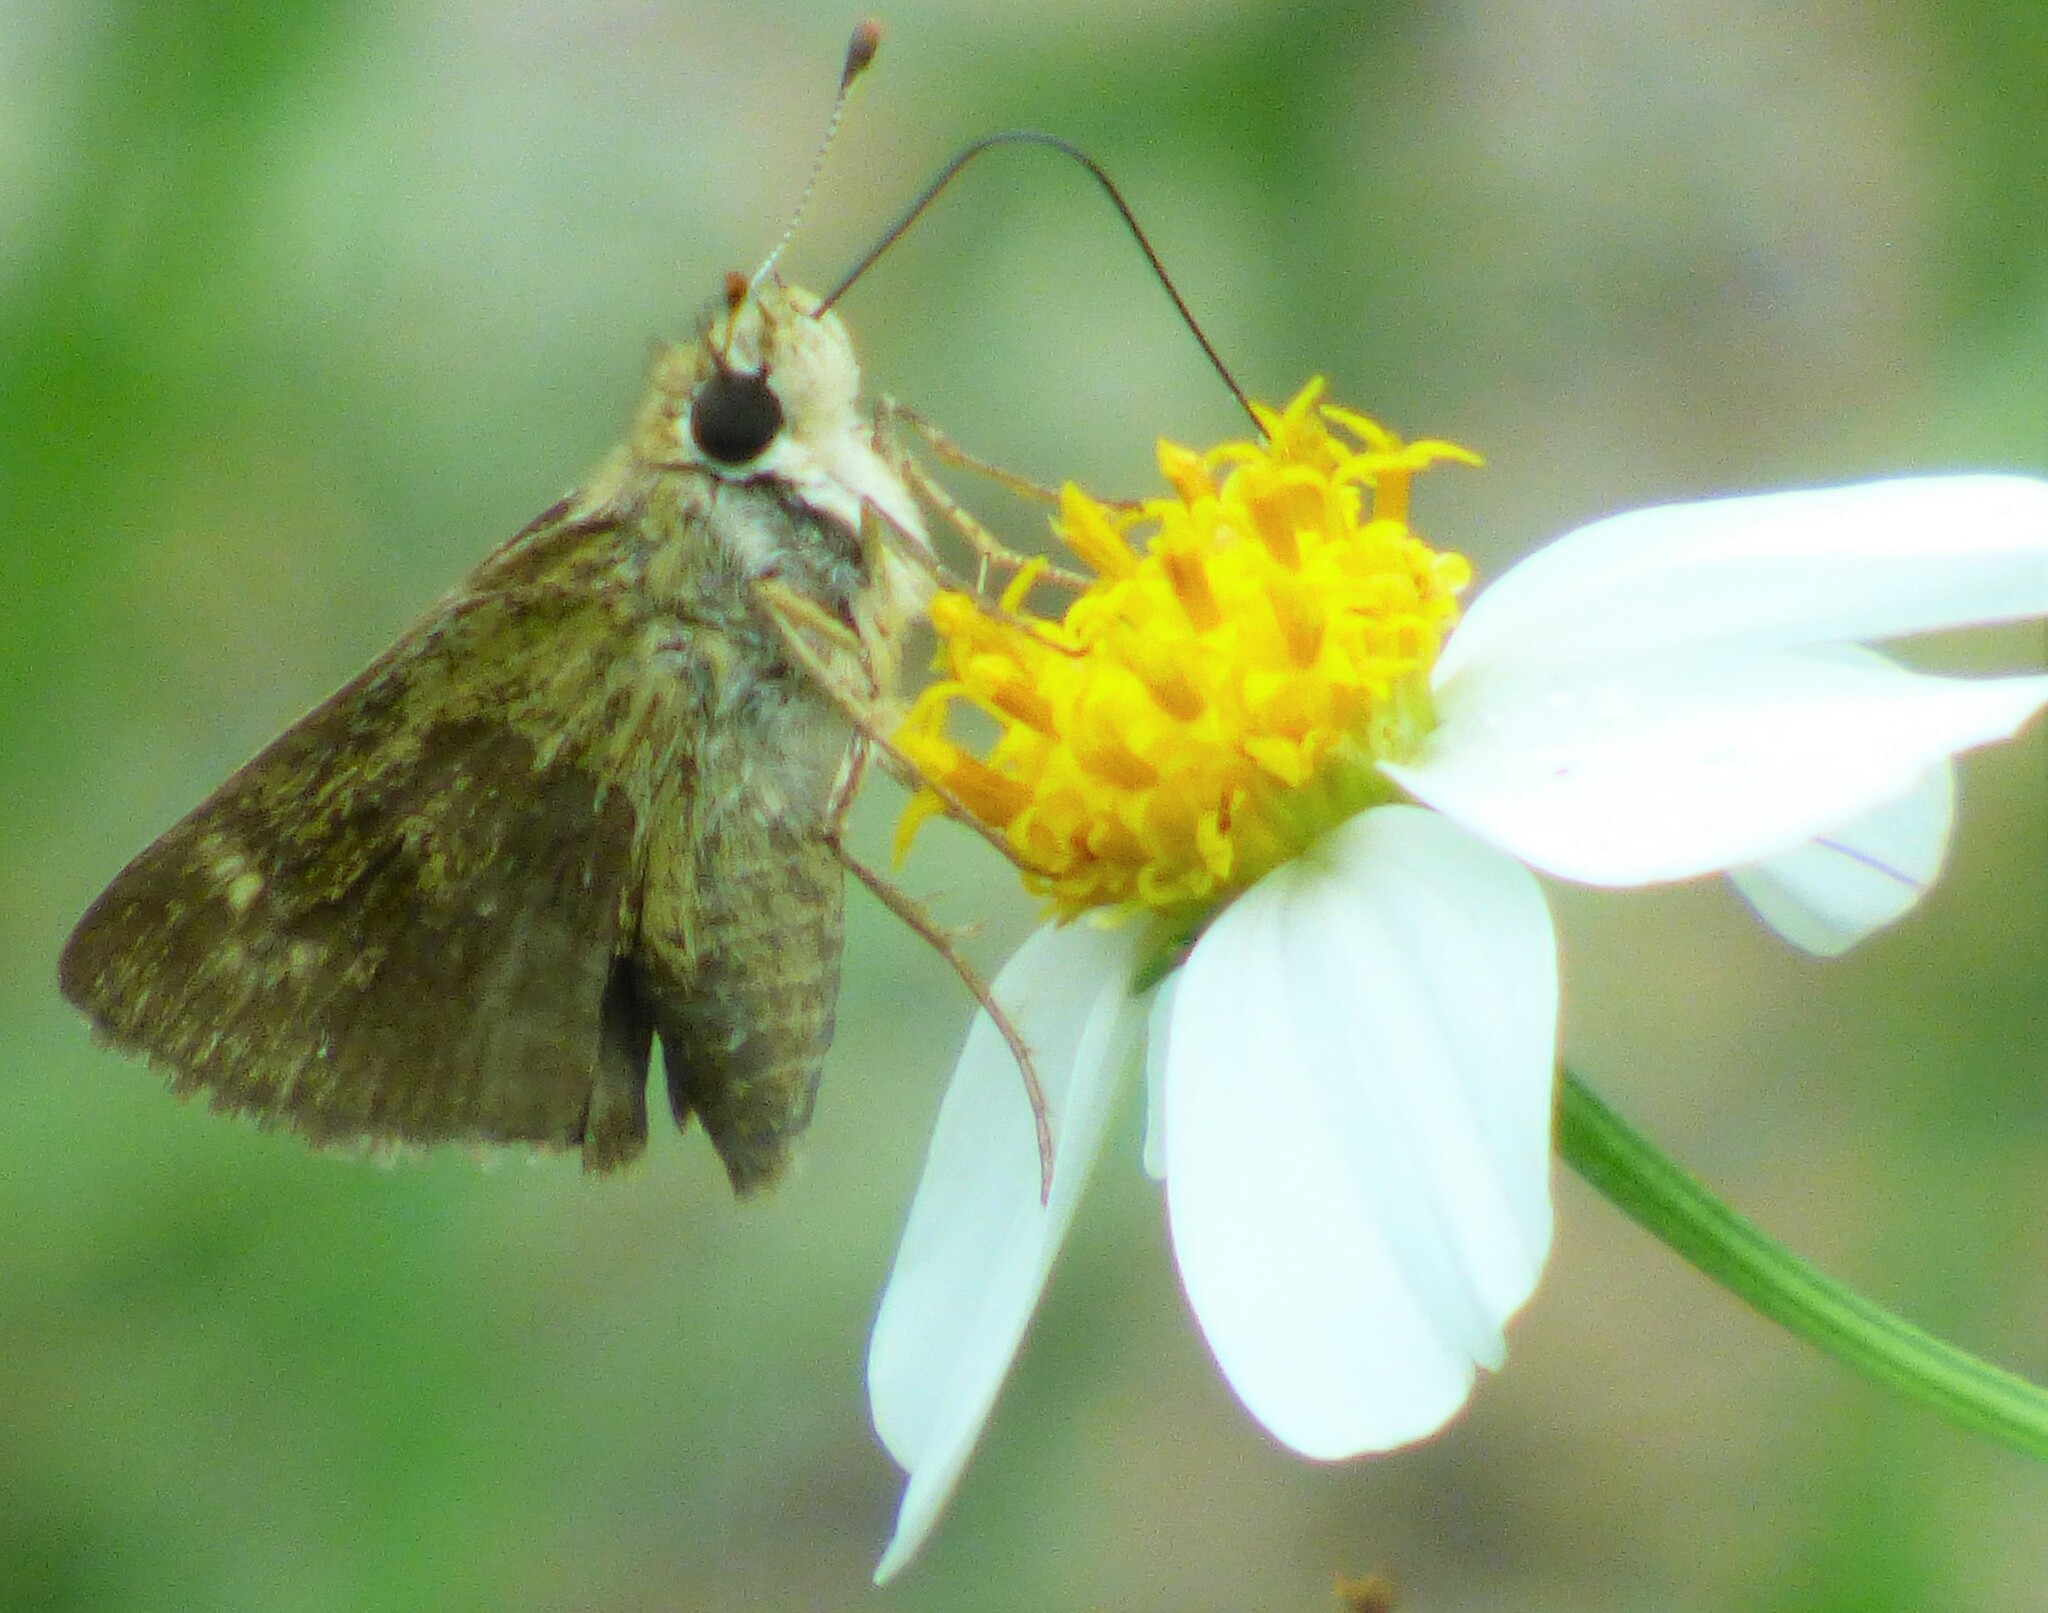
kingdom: Animalia
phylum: Arthropoda
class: Insecta
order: Lepidoptera
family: Hesperiidae
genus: Polites
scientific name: Polites vibex
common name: Whirlabout
